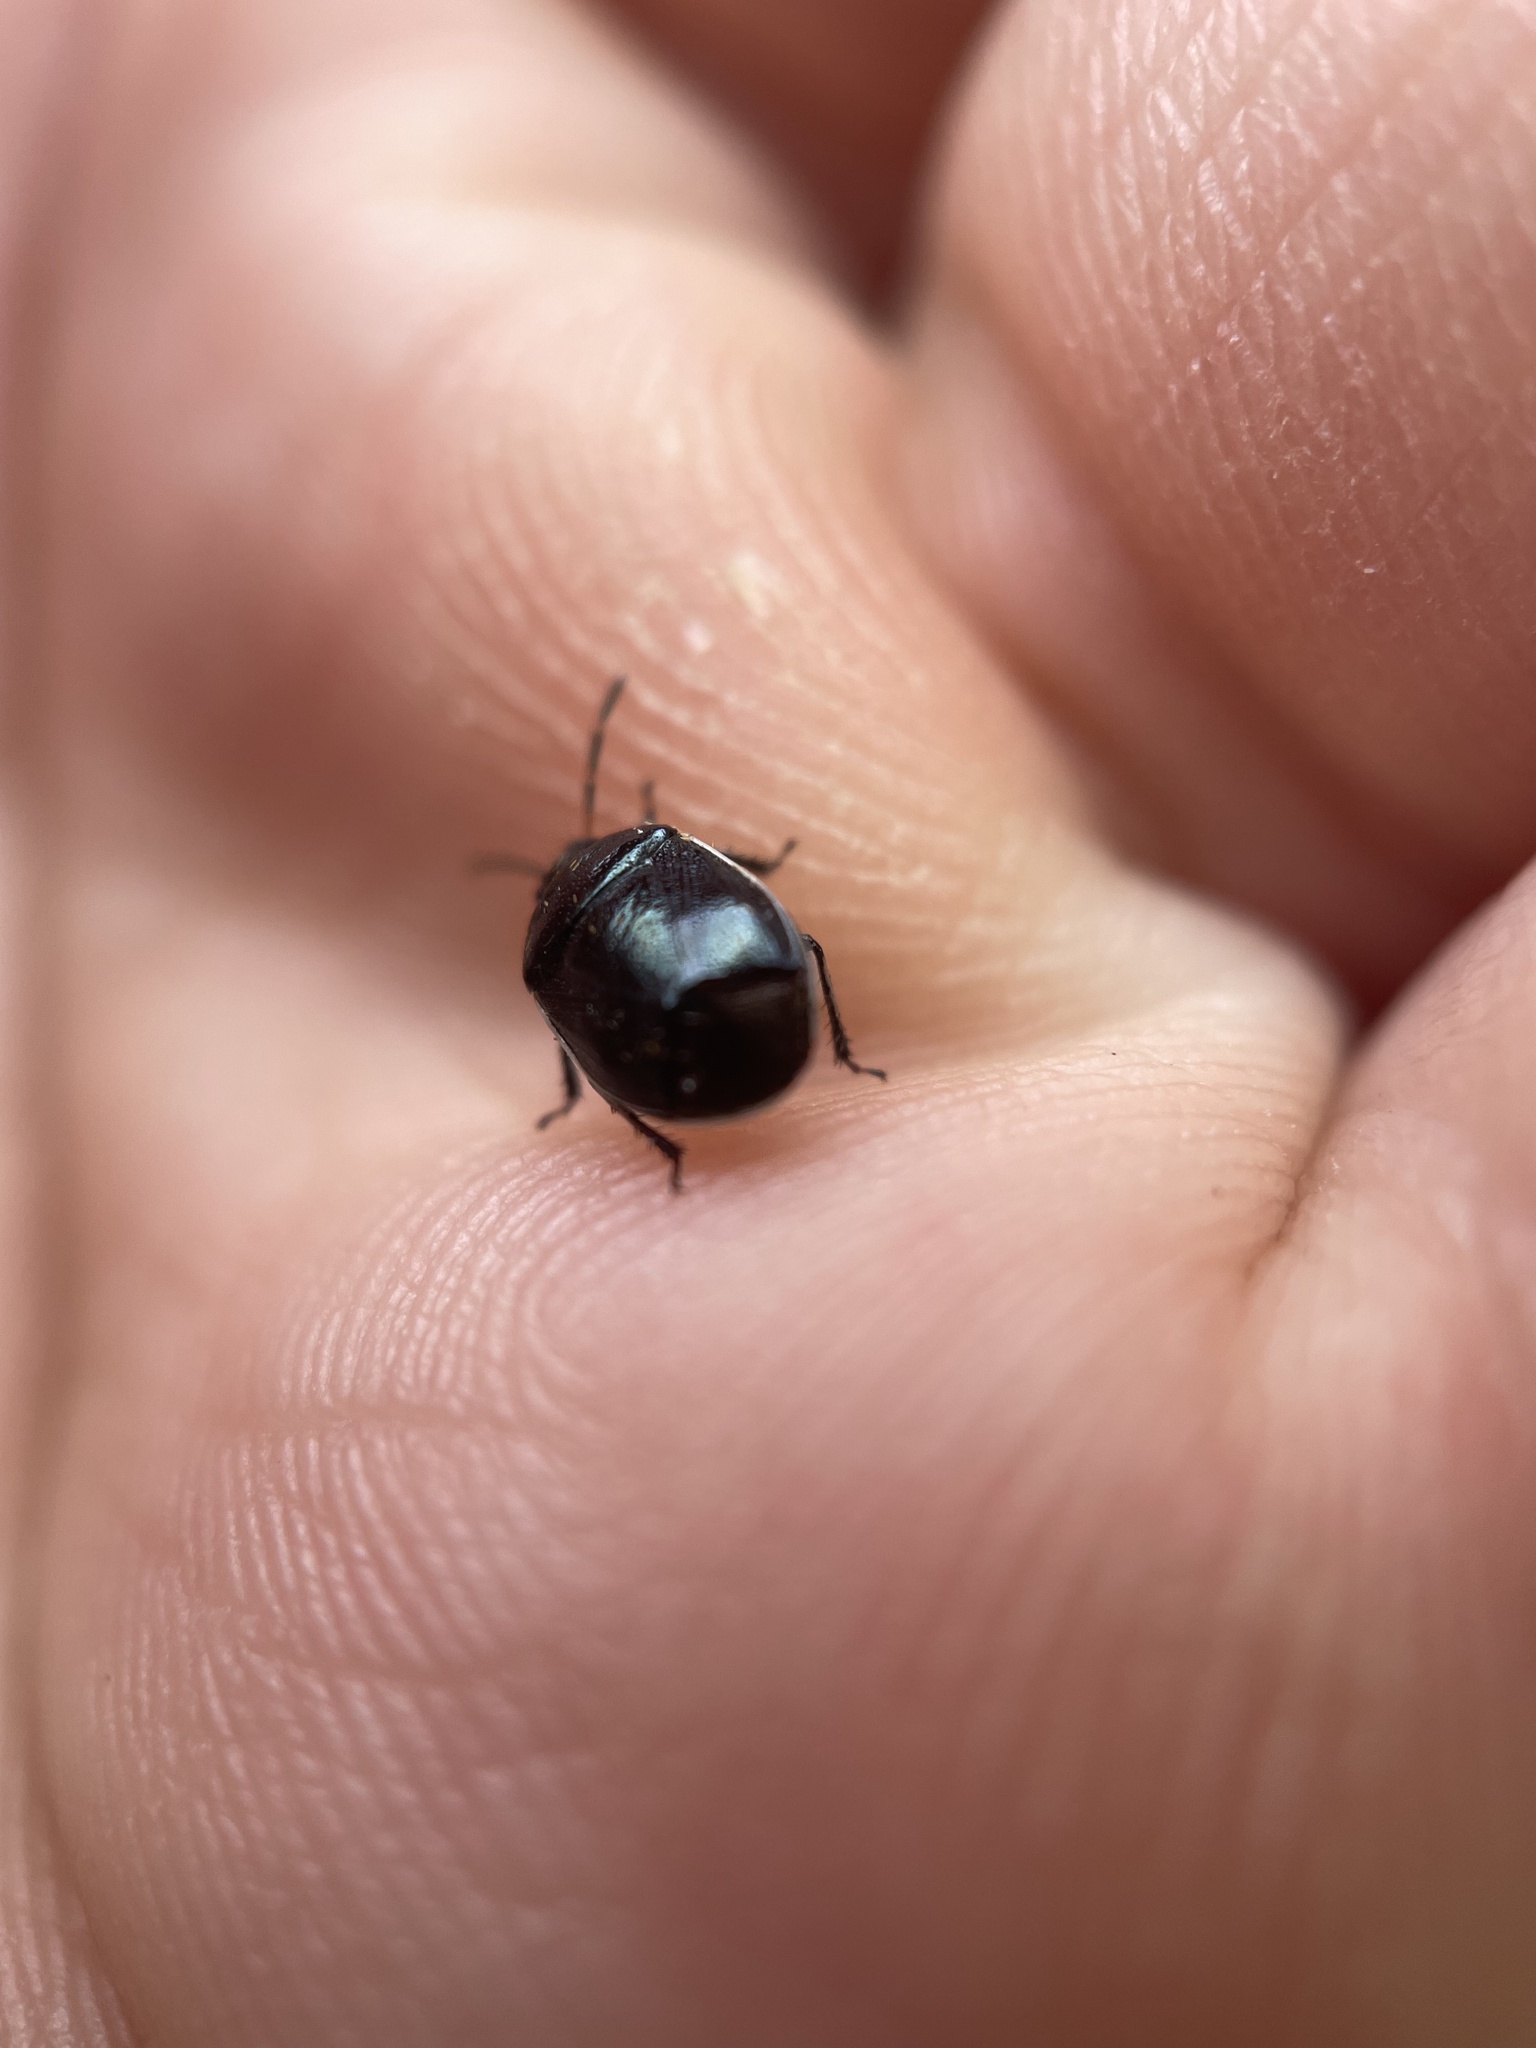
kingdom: Animalia
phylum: Arthropoda
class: Insecta
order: Hemiptera
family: Cydnidae
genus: Sehirus
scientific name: Sehirus cinctus
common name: White-margined burrower bug
